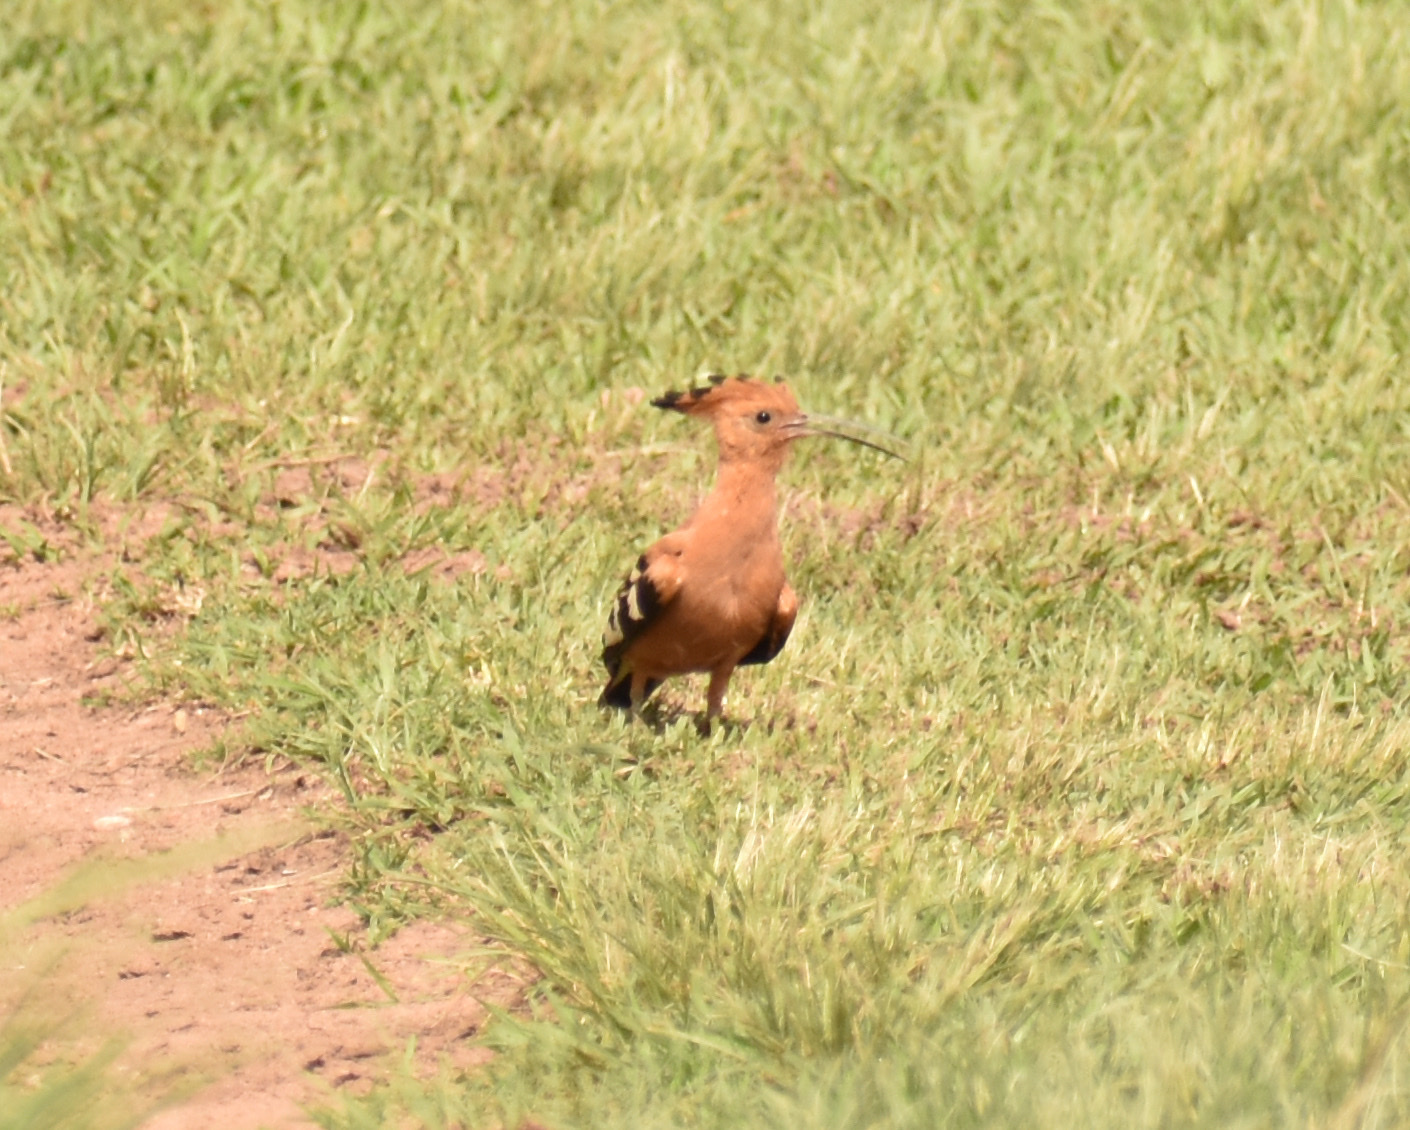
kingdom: Animalia
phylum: Chordata
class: Aves
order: Bucerotiformes
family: Upupidae
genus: Upupa
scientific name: Upupa africana
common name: African hoopoe
